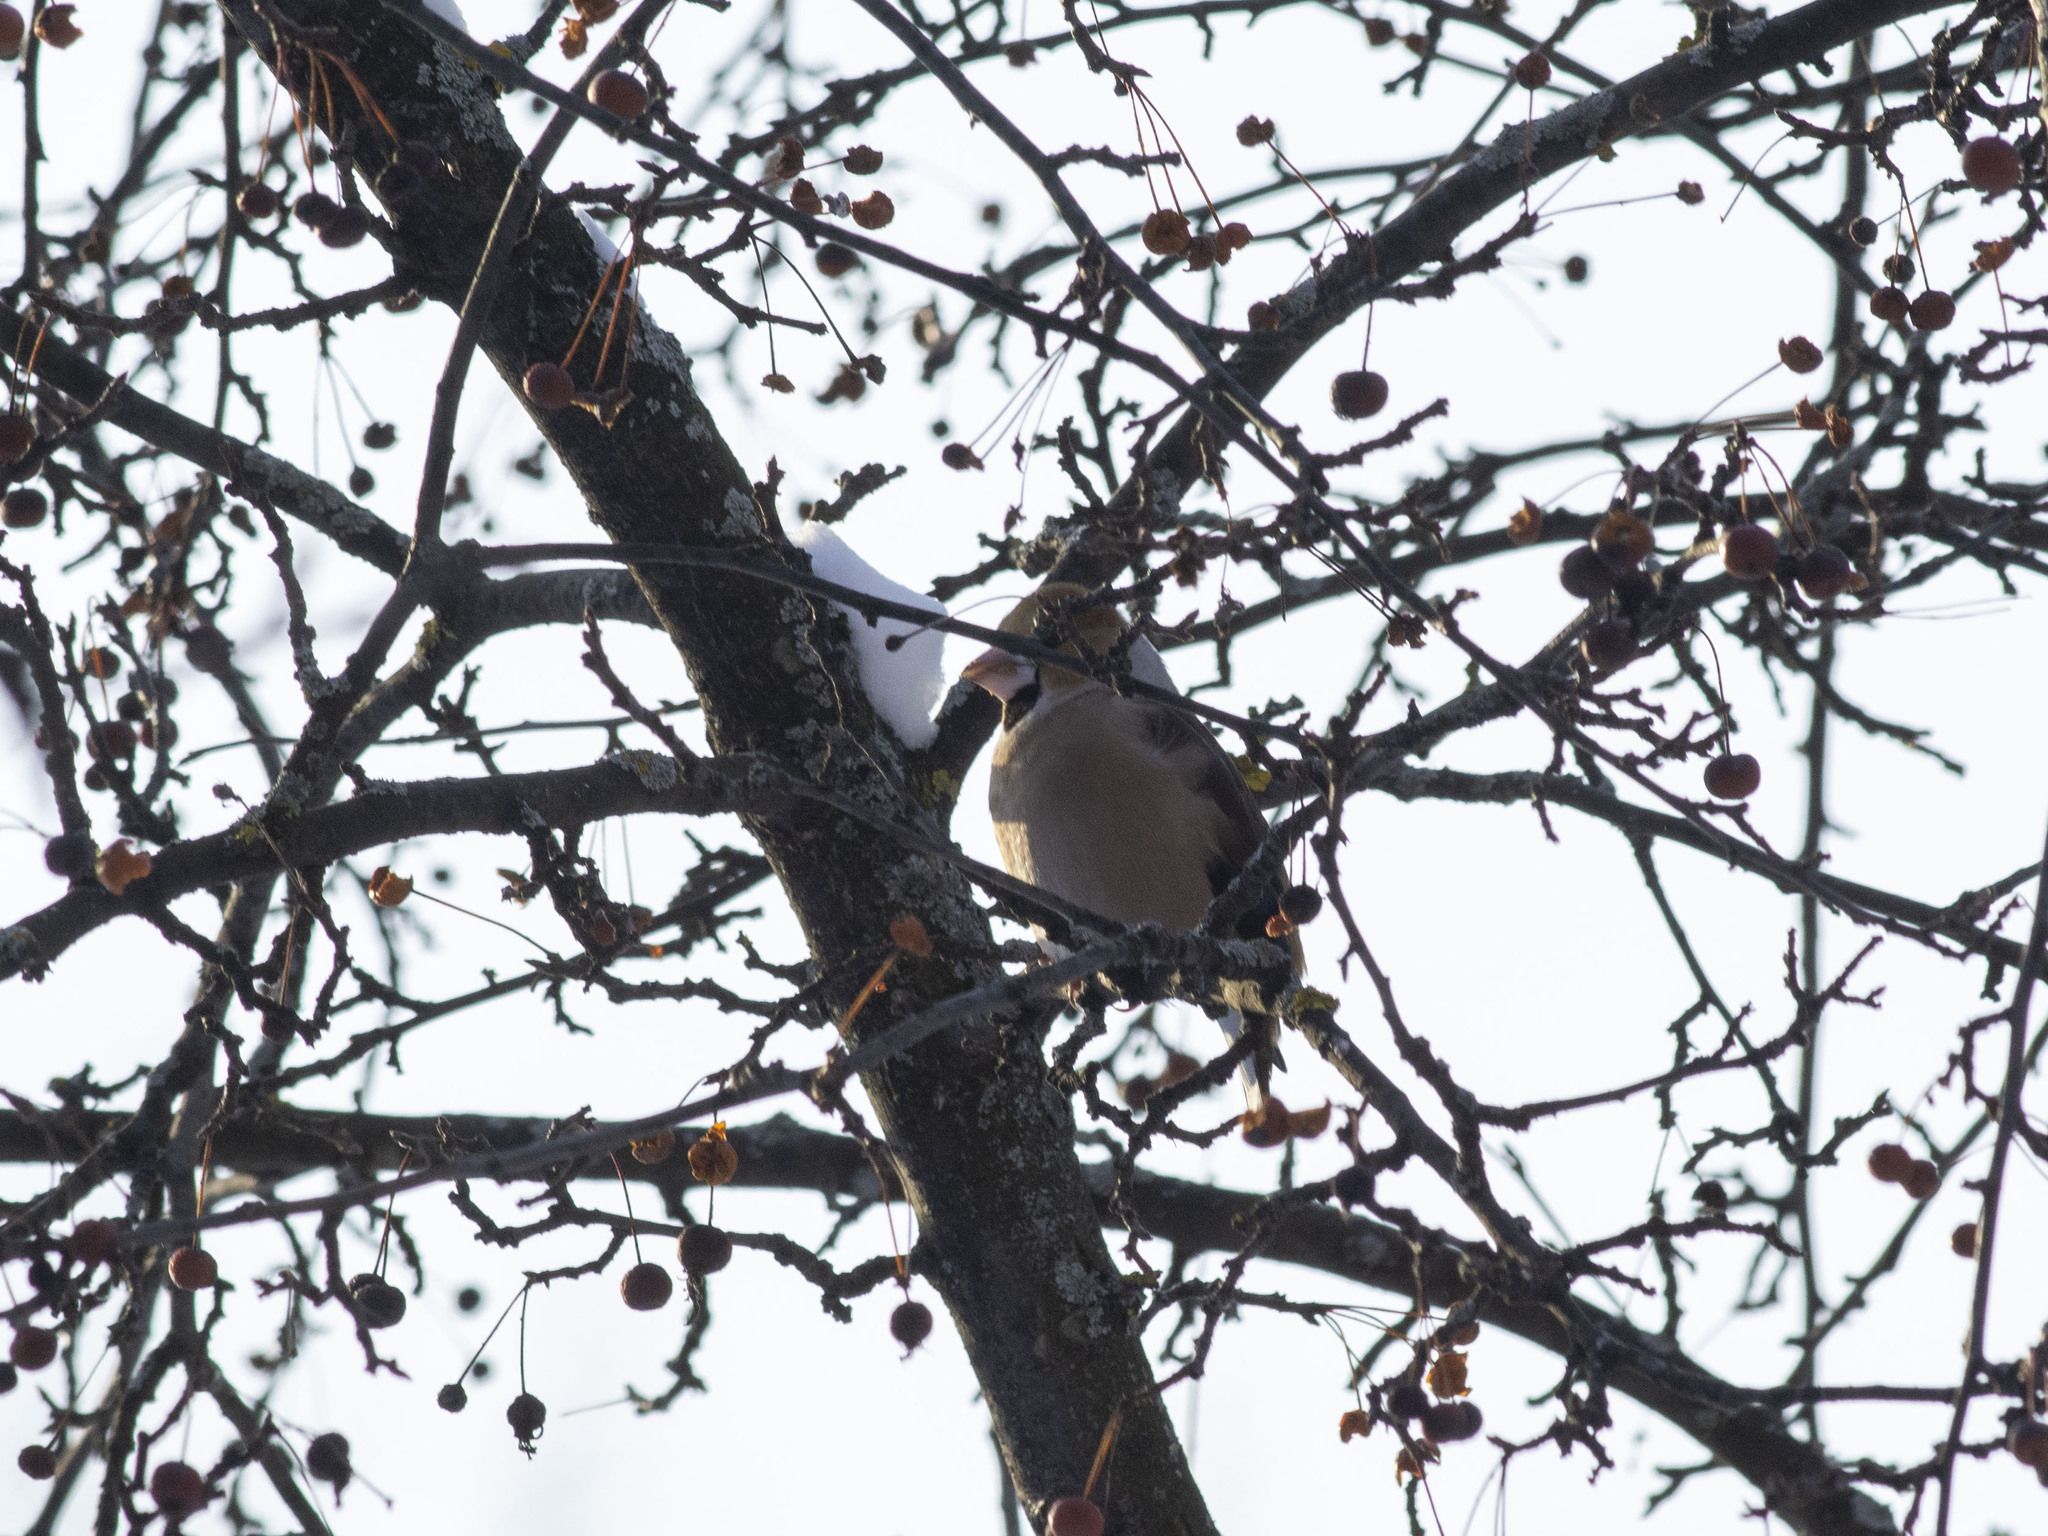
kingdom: Animalia
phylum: Chordata
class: Aves
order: Passeriformes
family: Fringillidae
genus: Coccothraustes
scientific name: Coccothraustes coccothraustes
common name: Hawfinch
